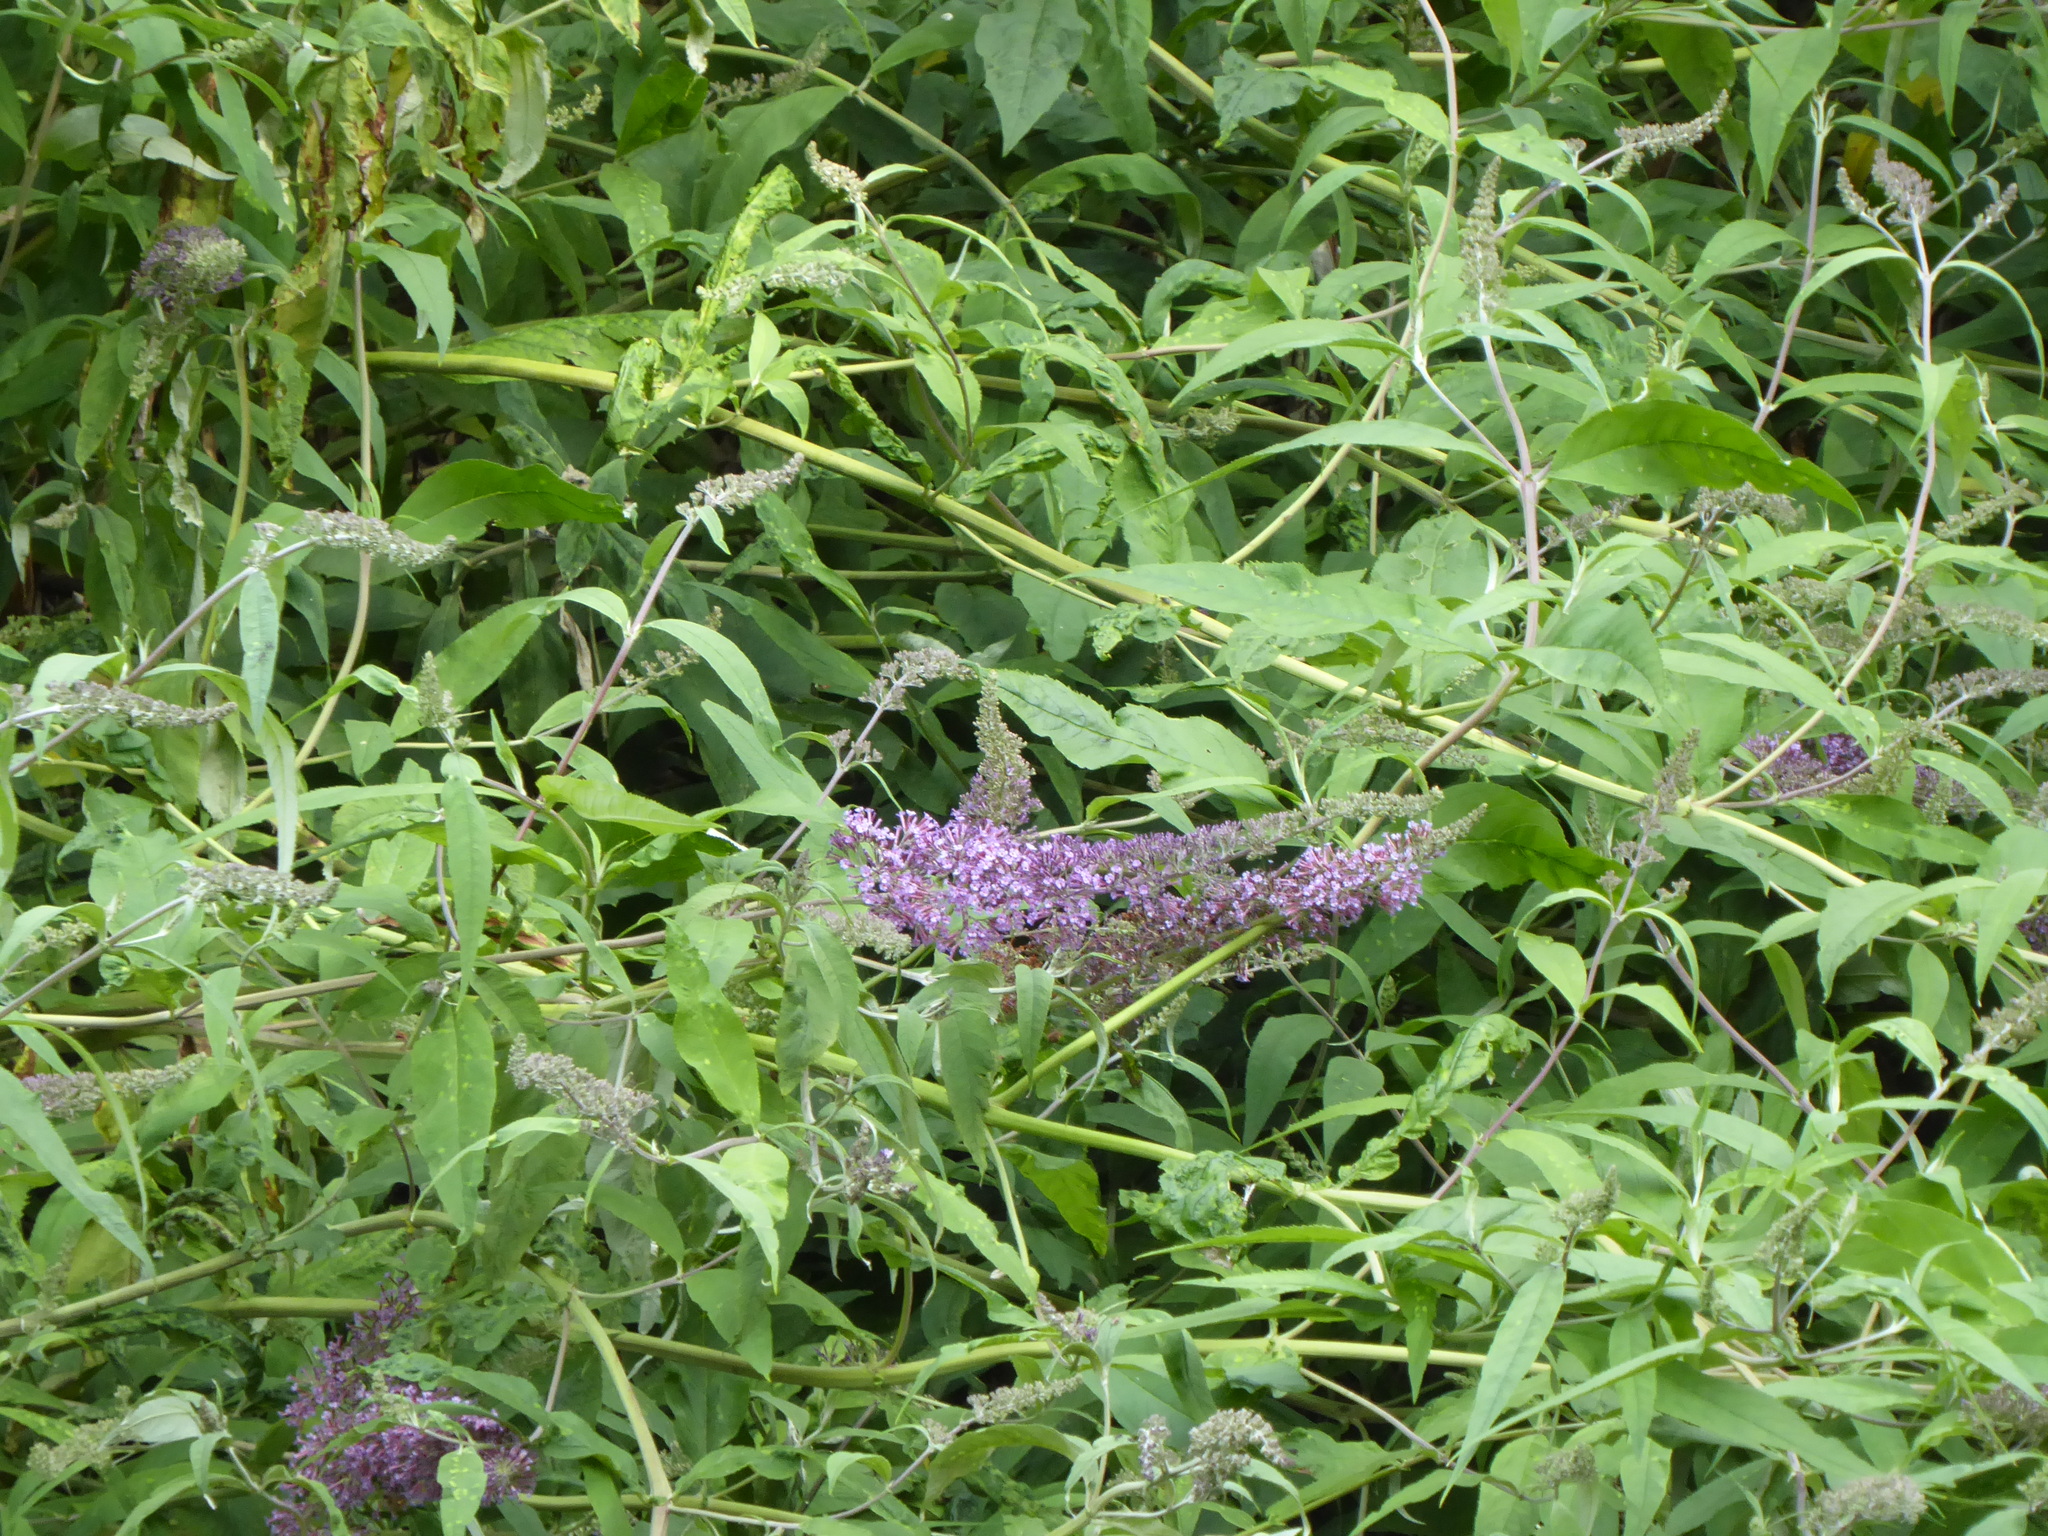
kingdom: Plantae
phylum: Tracheophyta
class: Magnoliopsida
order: Lamiales
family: Scrophulariaceae
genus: Buddleja
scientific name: Buddleja davidii
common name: Butterfly-bush
